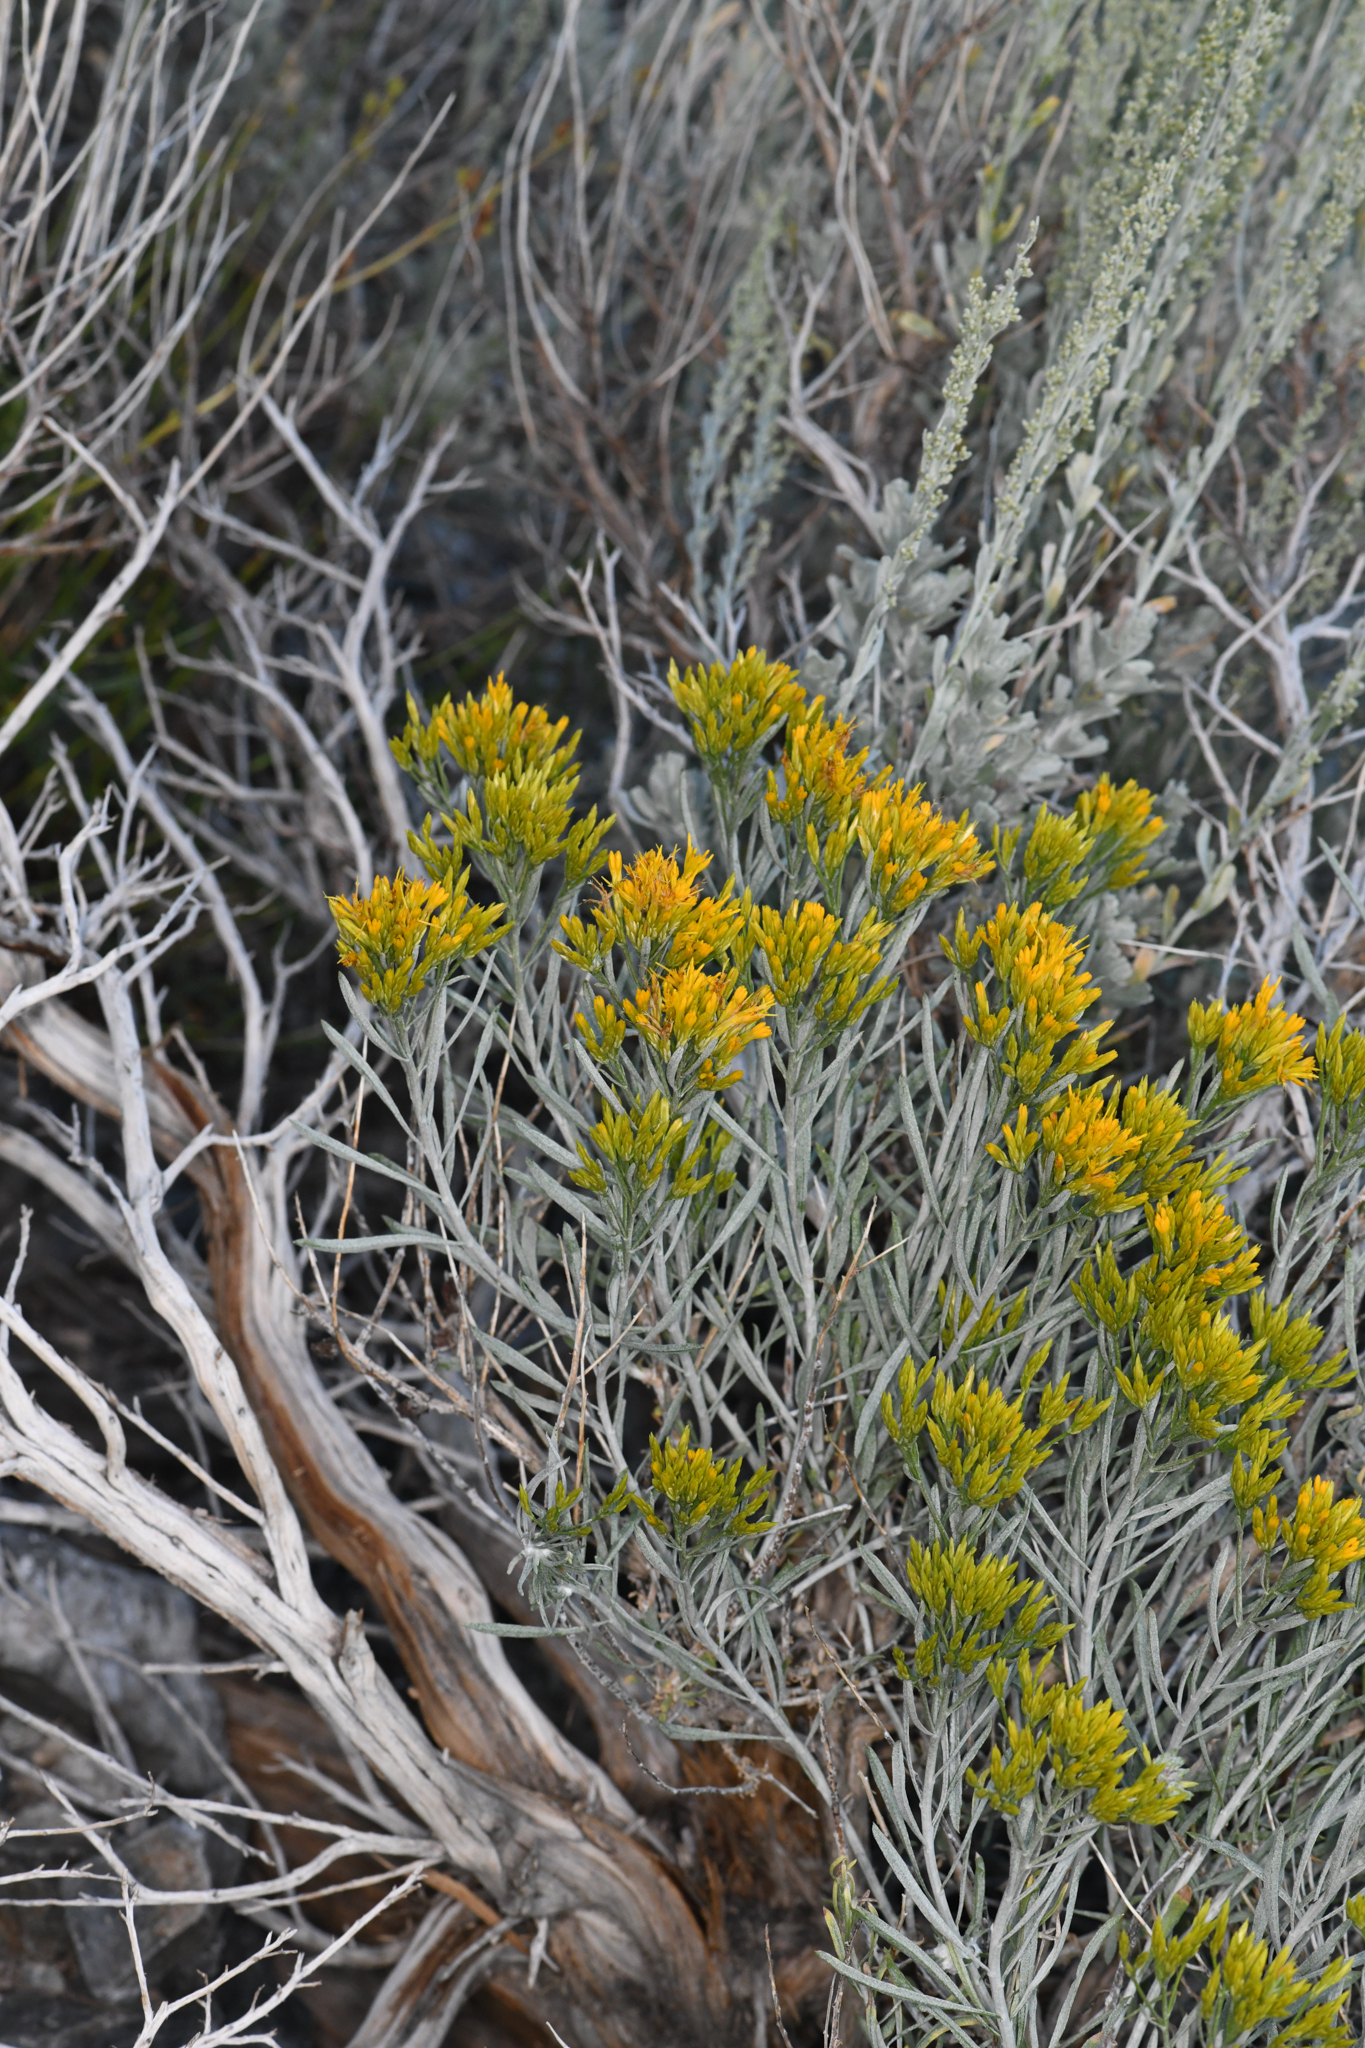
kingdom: Plantae
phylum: Tracheophyta
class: Magnoliopsida
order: Asterales
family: Asteraceae
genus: Ericameria
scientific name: Ericameria nauseosa
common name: Rubber rabbitbrush
